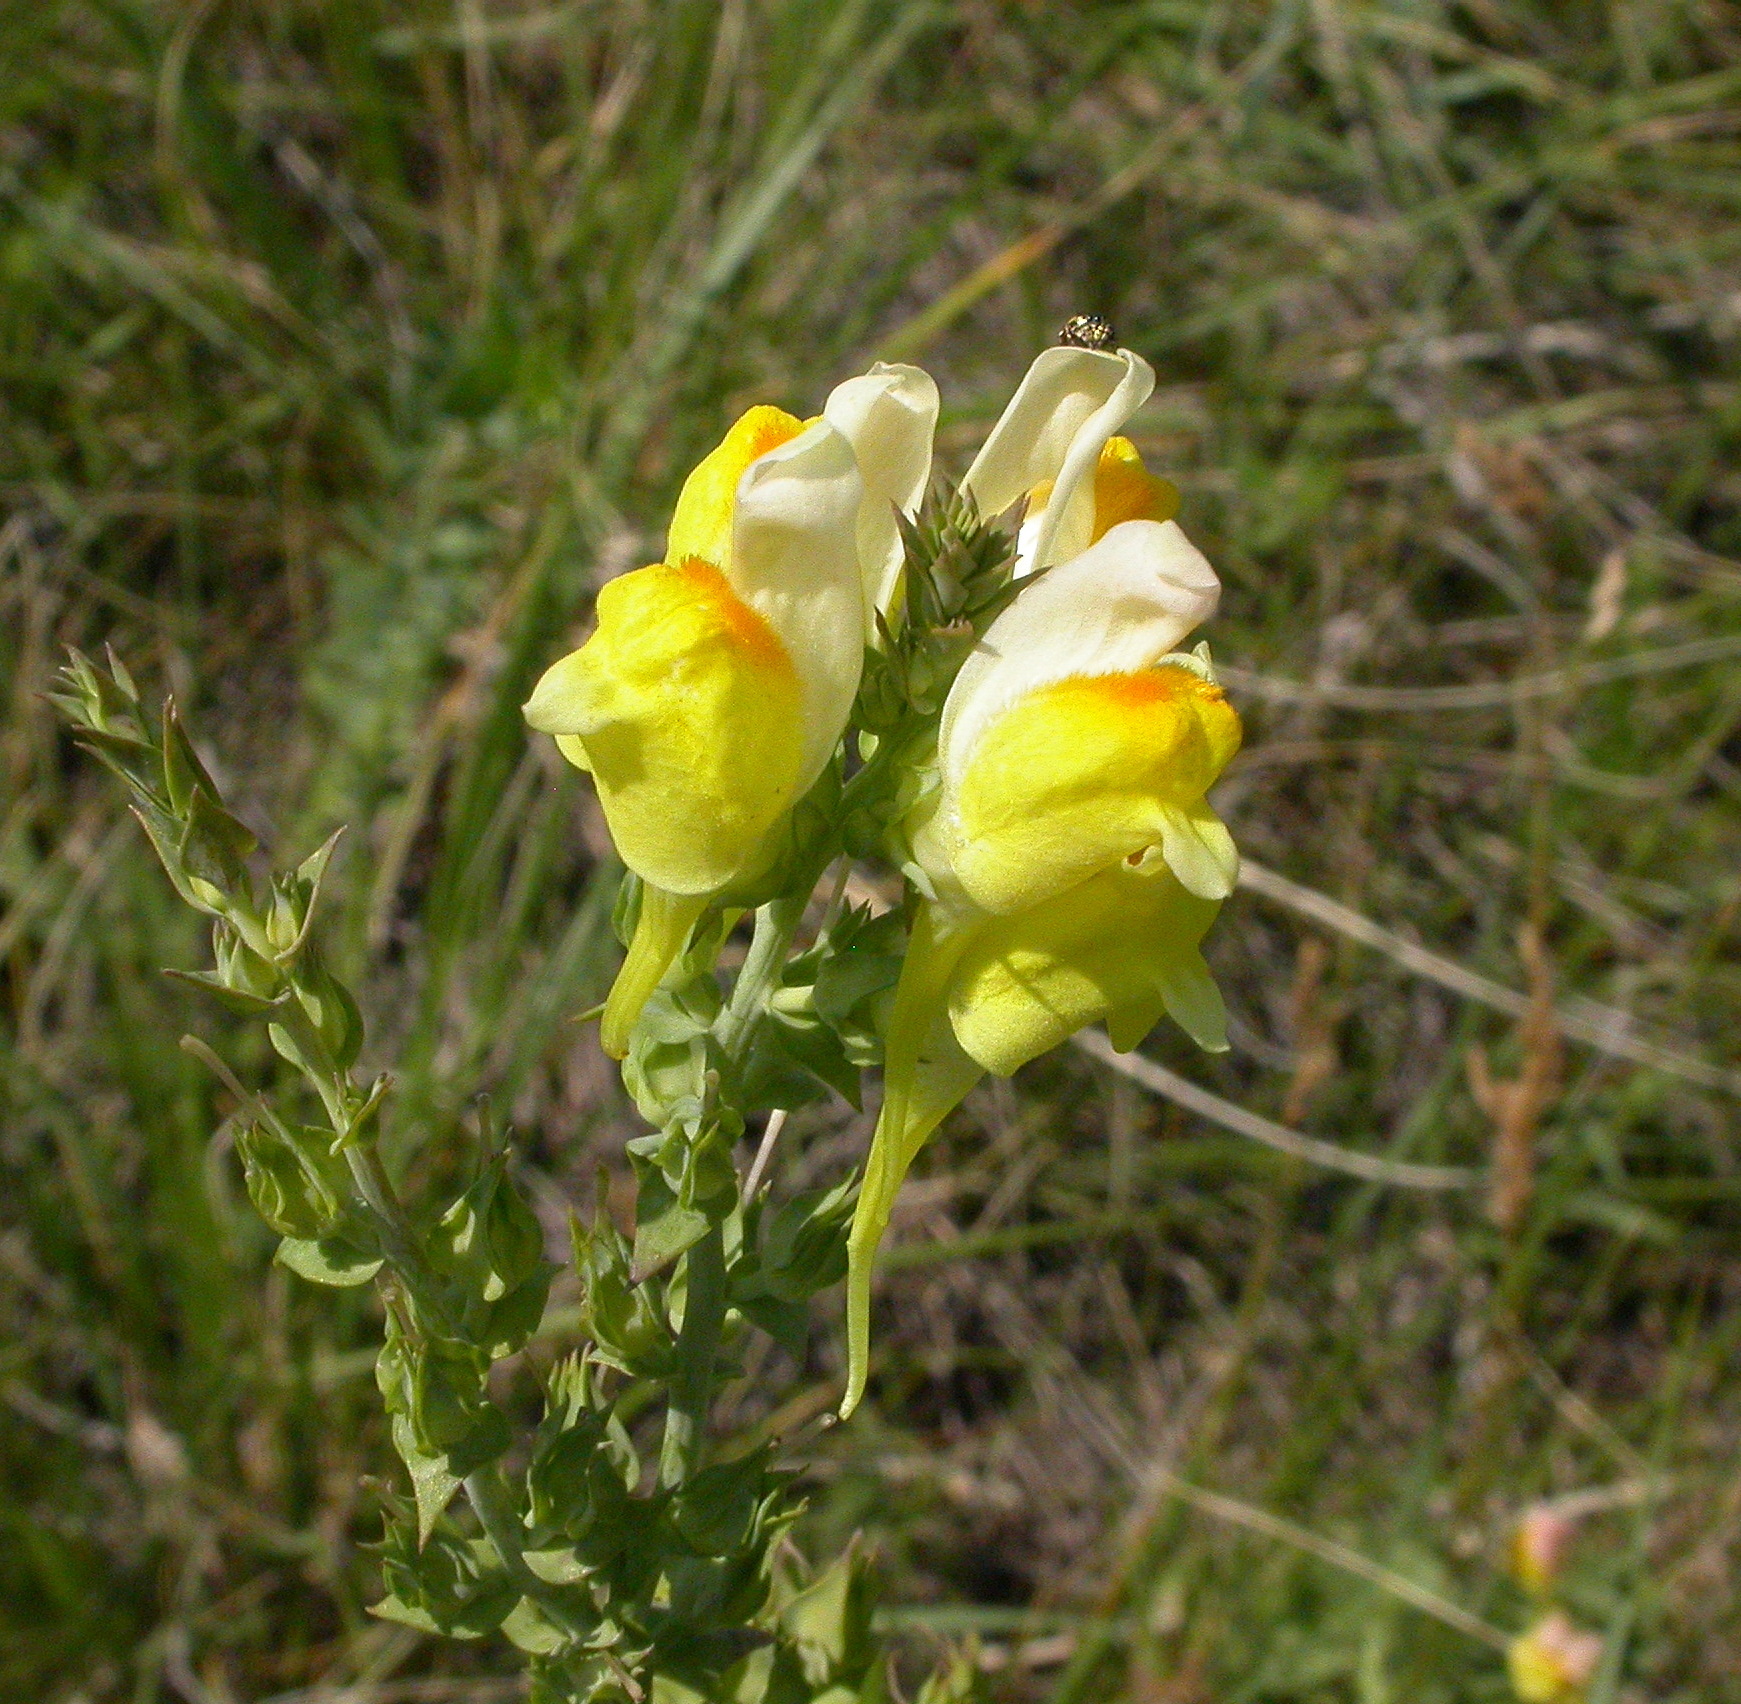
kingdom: Plantae
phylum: Tracheophyta
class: Magnoliopsida
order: Lamiales
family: Plantaginaceae
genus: Linaria
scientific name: Linaria dalmatica
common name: Dalmatian toadflax
